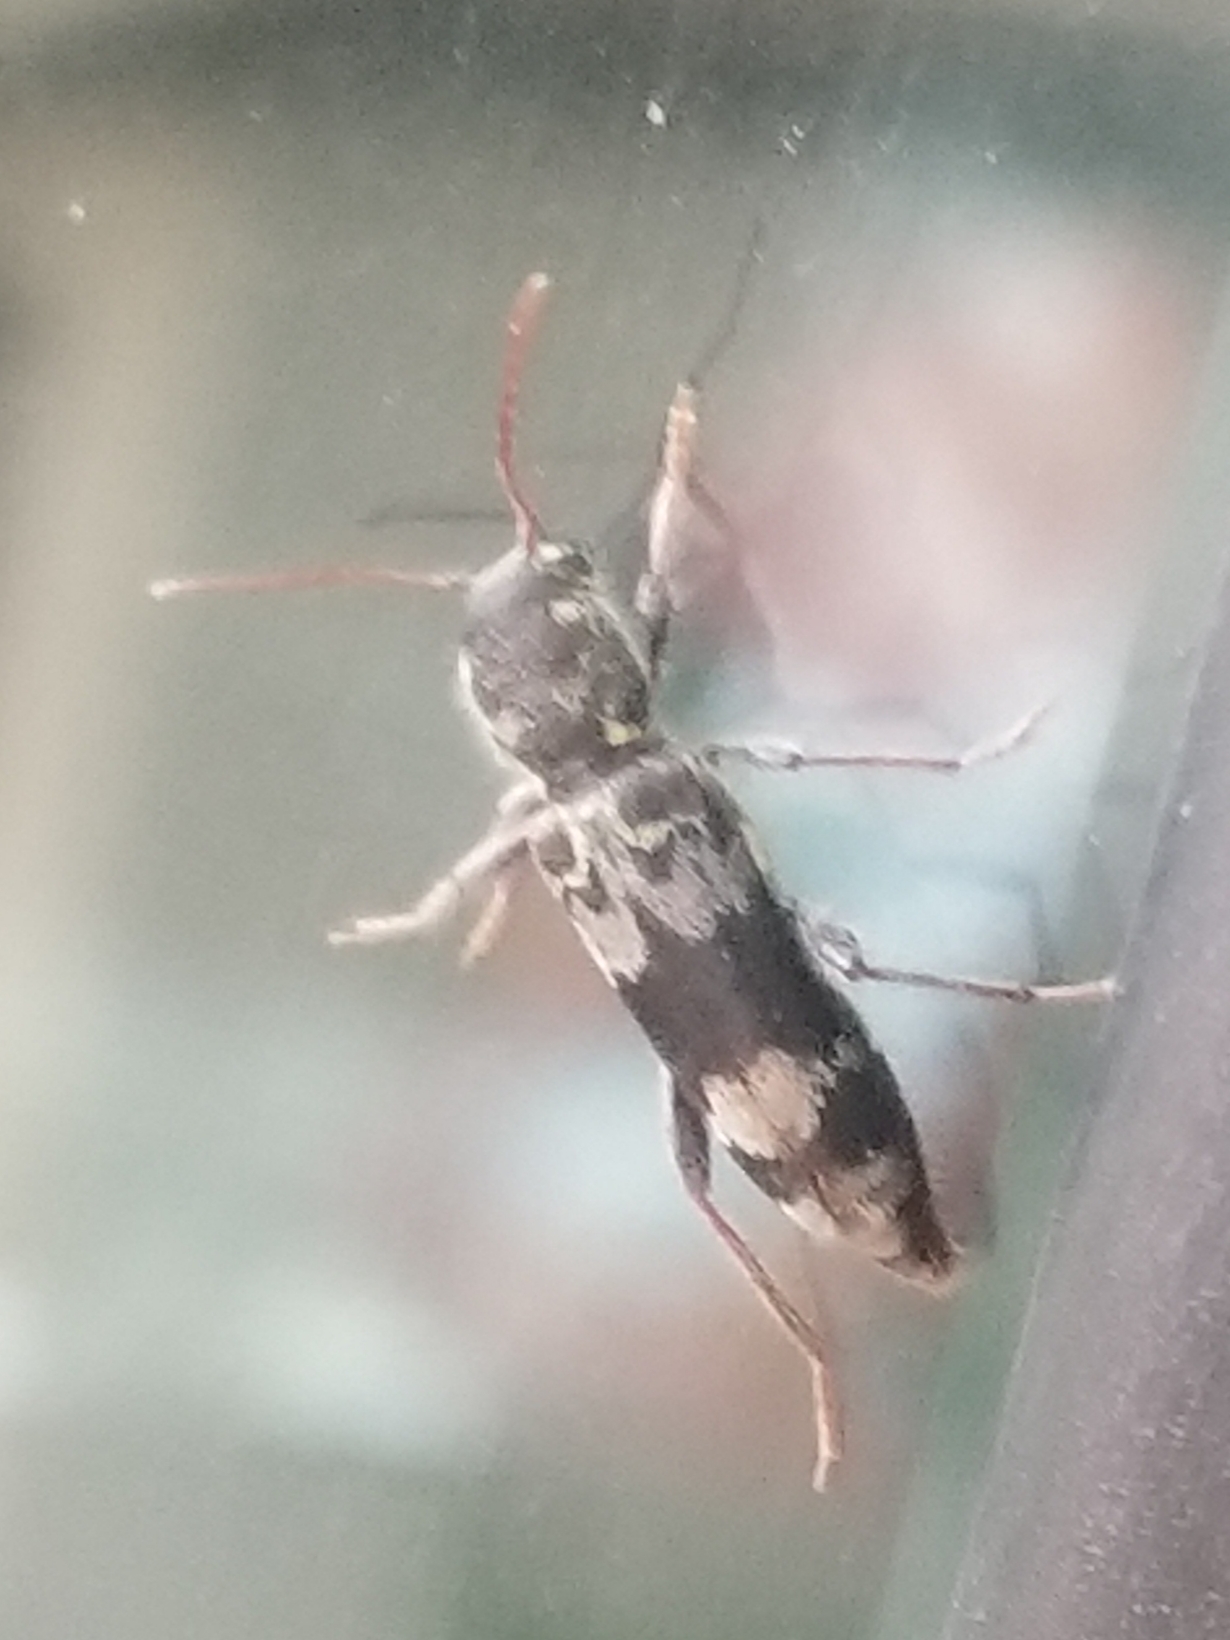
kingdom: Animalia
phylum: Arthropoda
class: Insecta
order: Coleoptera
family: Cerambycidae
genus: Xylotrechus
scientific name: Xylotrechus colonus
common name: Long-horned beetle
